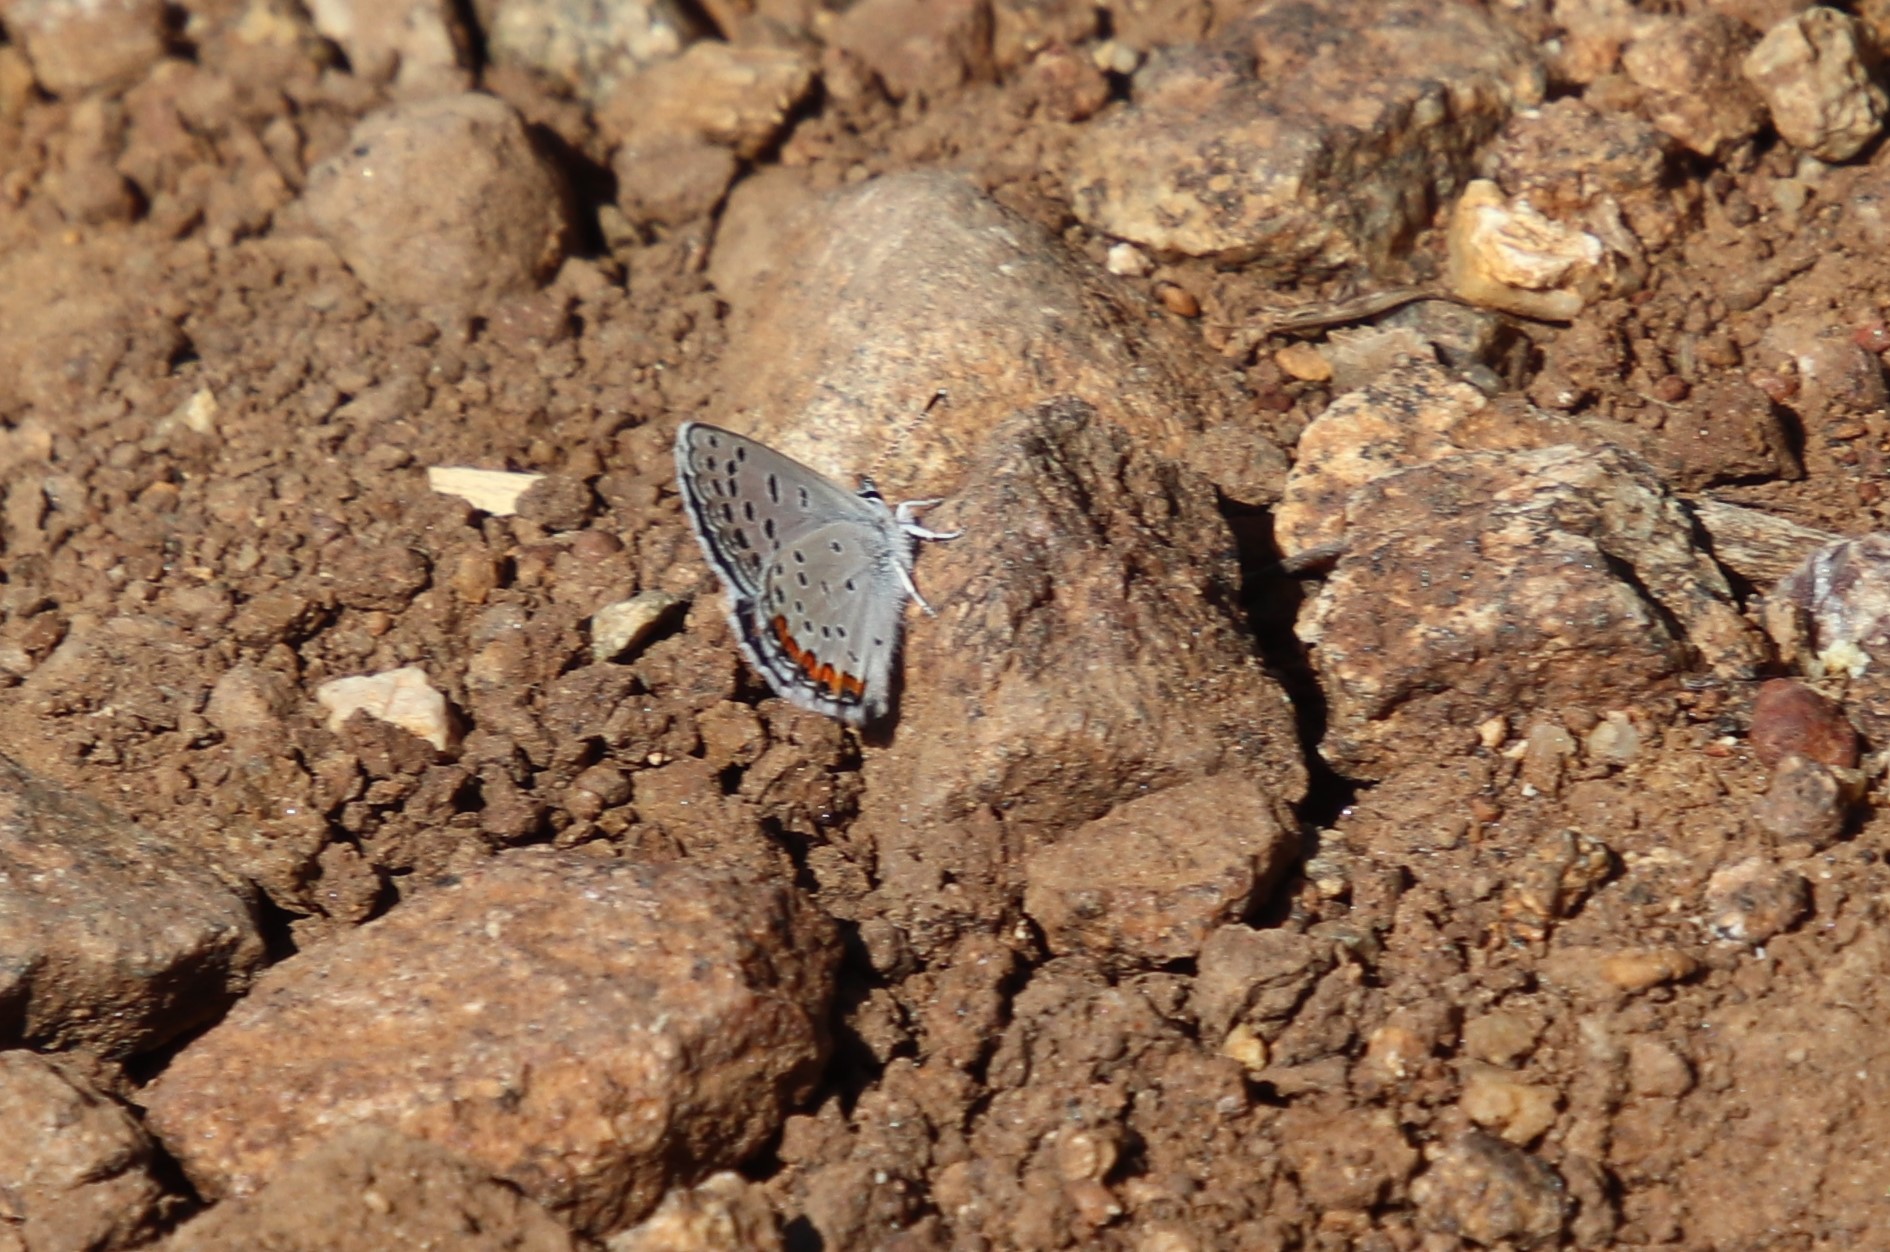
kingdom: Animalia
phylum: Arthropoda
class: Insecta
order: Lepidoptera
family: Lycaenidae
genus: Icaricia
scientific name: Icaricia acmon
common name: Acmon blue
